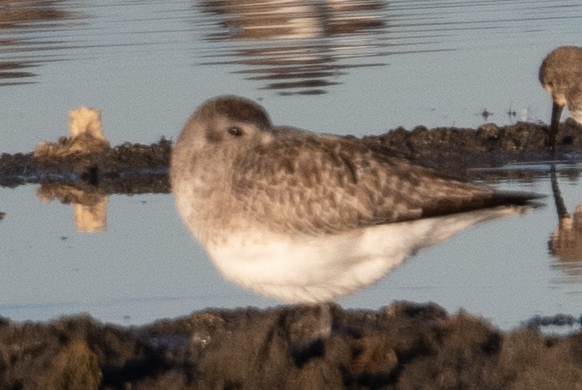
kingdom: Animalia
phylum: Chordata
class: Aves
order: Charadriiformes
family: Charadriidae
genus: Pluvialis
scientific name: Pluvialis squatarola
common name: Grey plover
